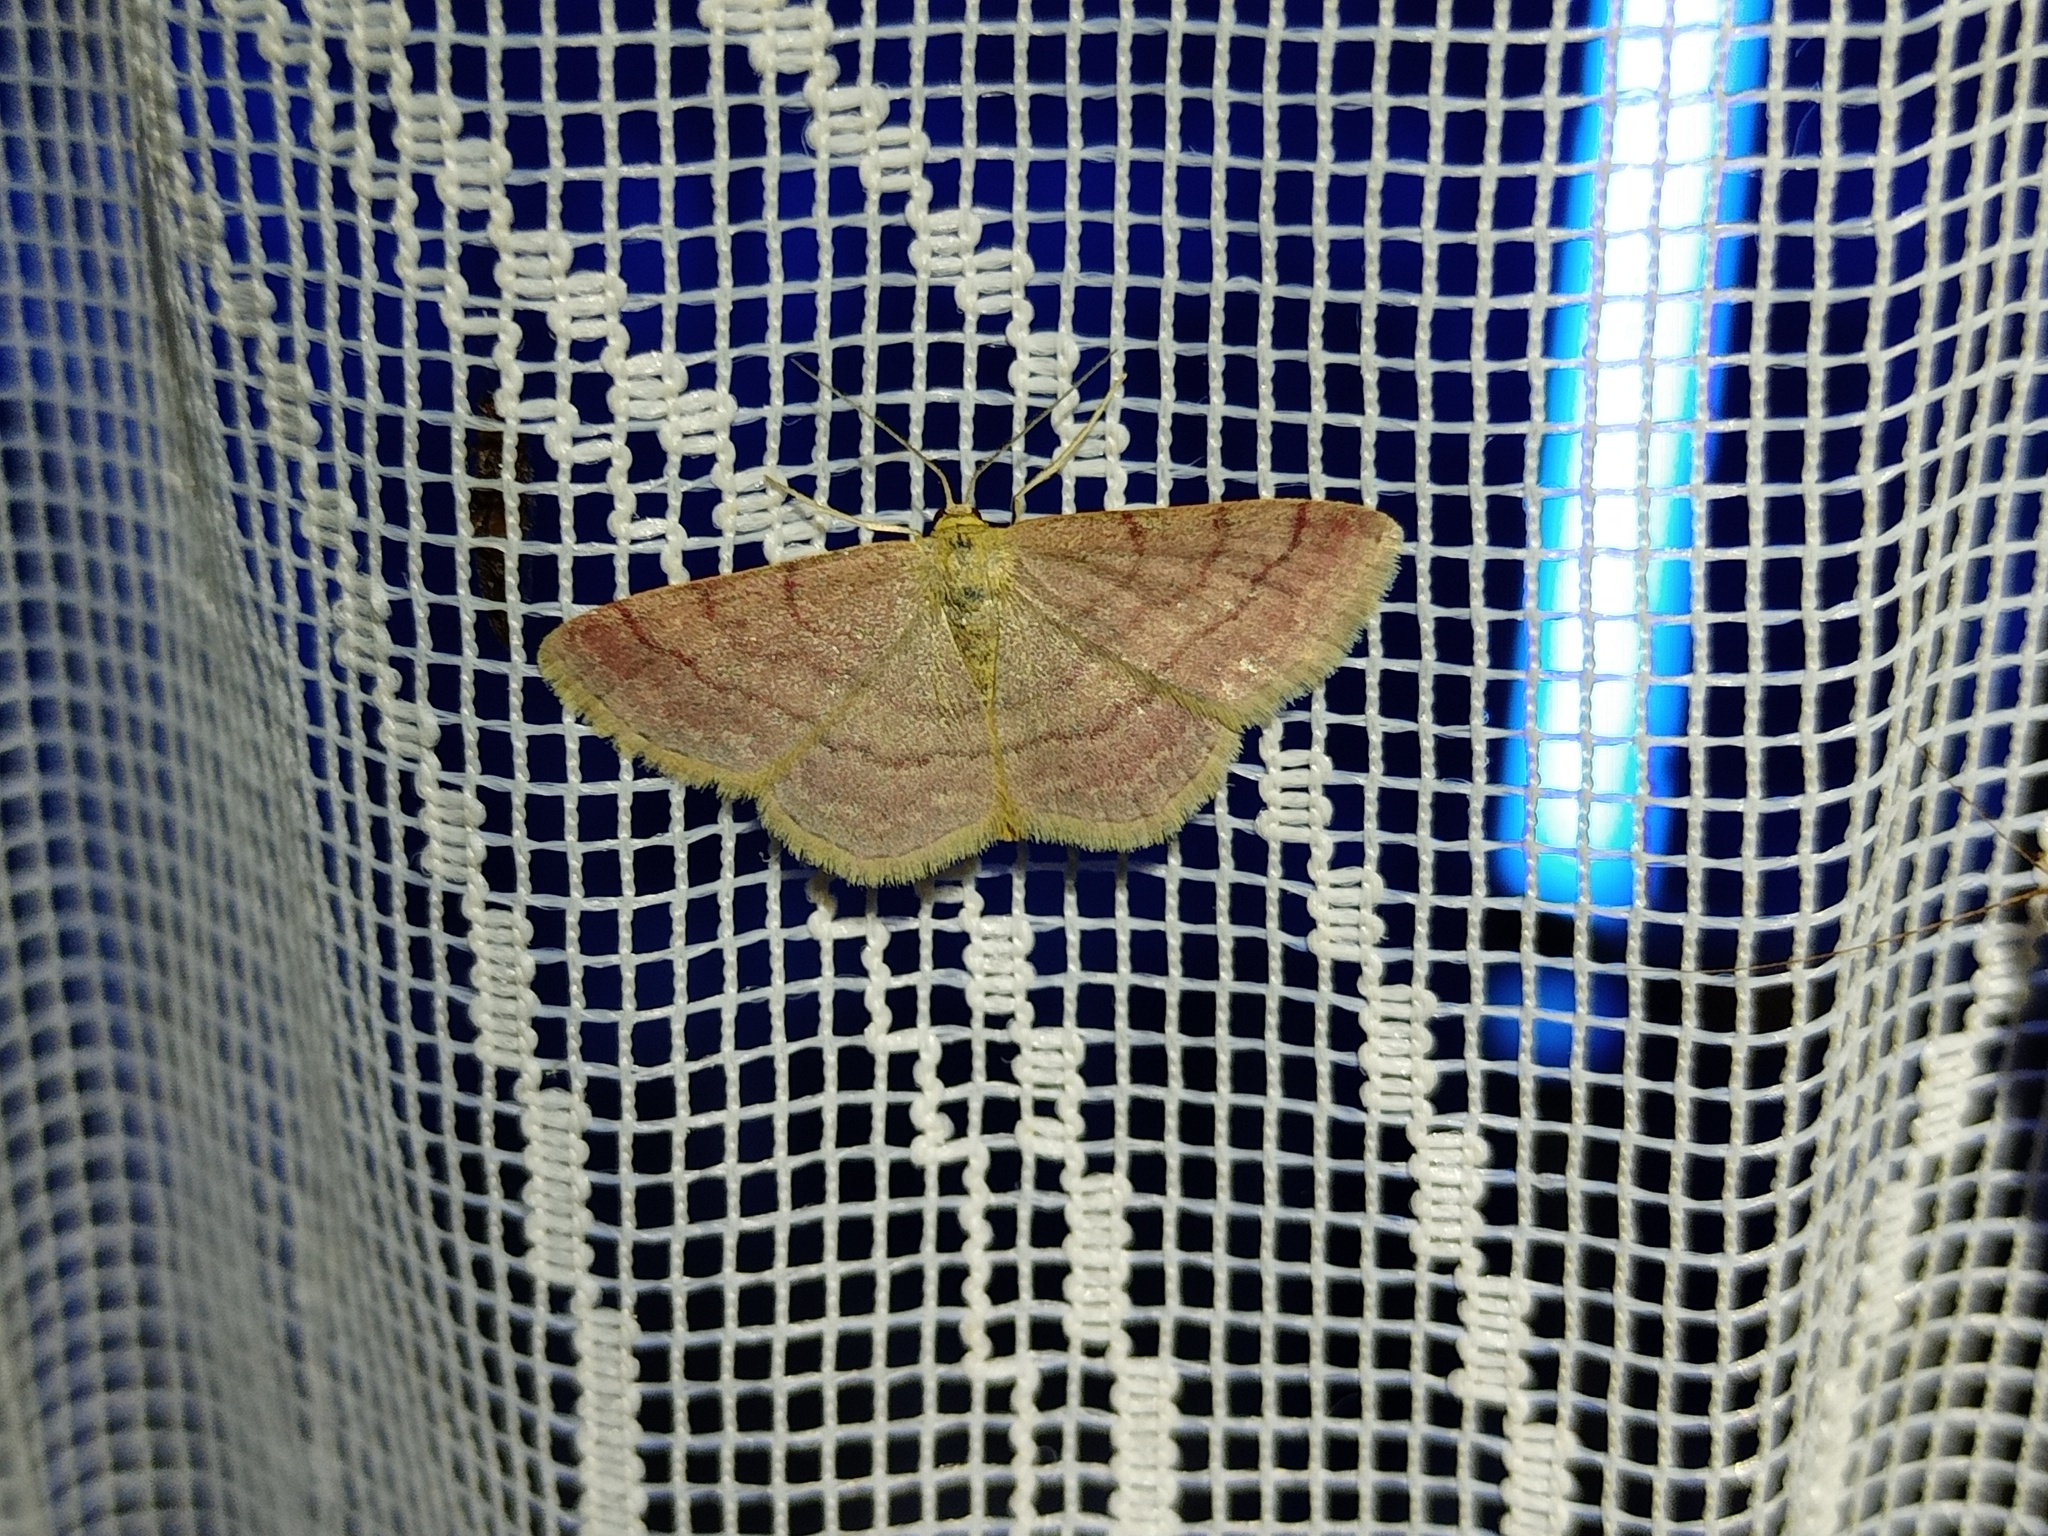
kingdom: Animalia
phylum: Arthropoda
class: Insecta
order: Lepidoptera
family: Geometridae
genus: Scopula
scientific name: Scopula rubiginata
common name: Tawny wave
